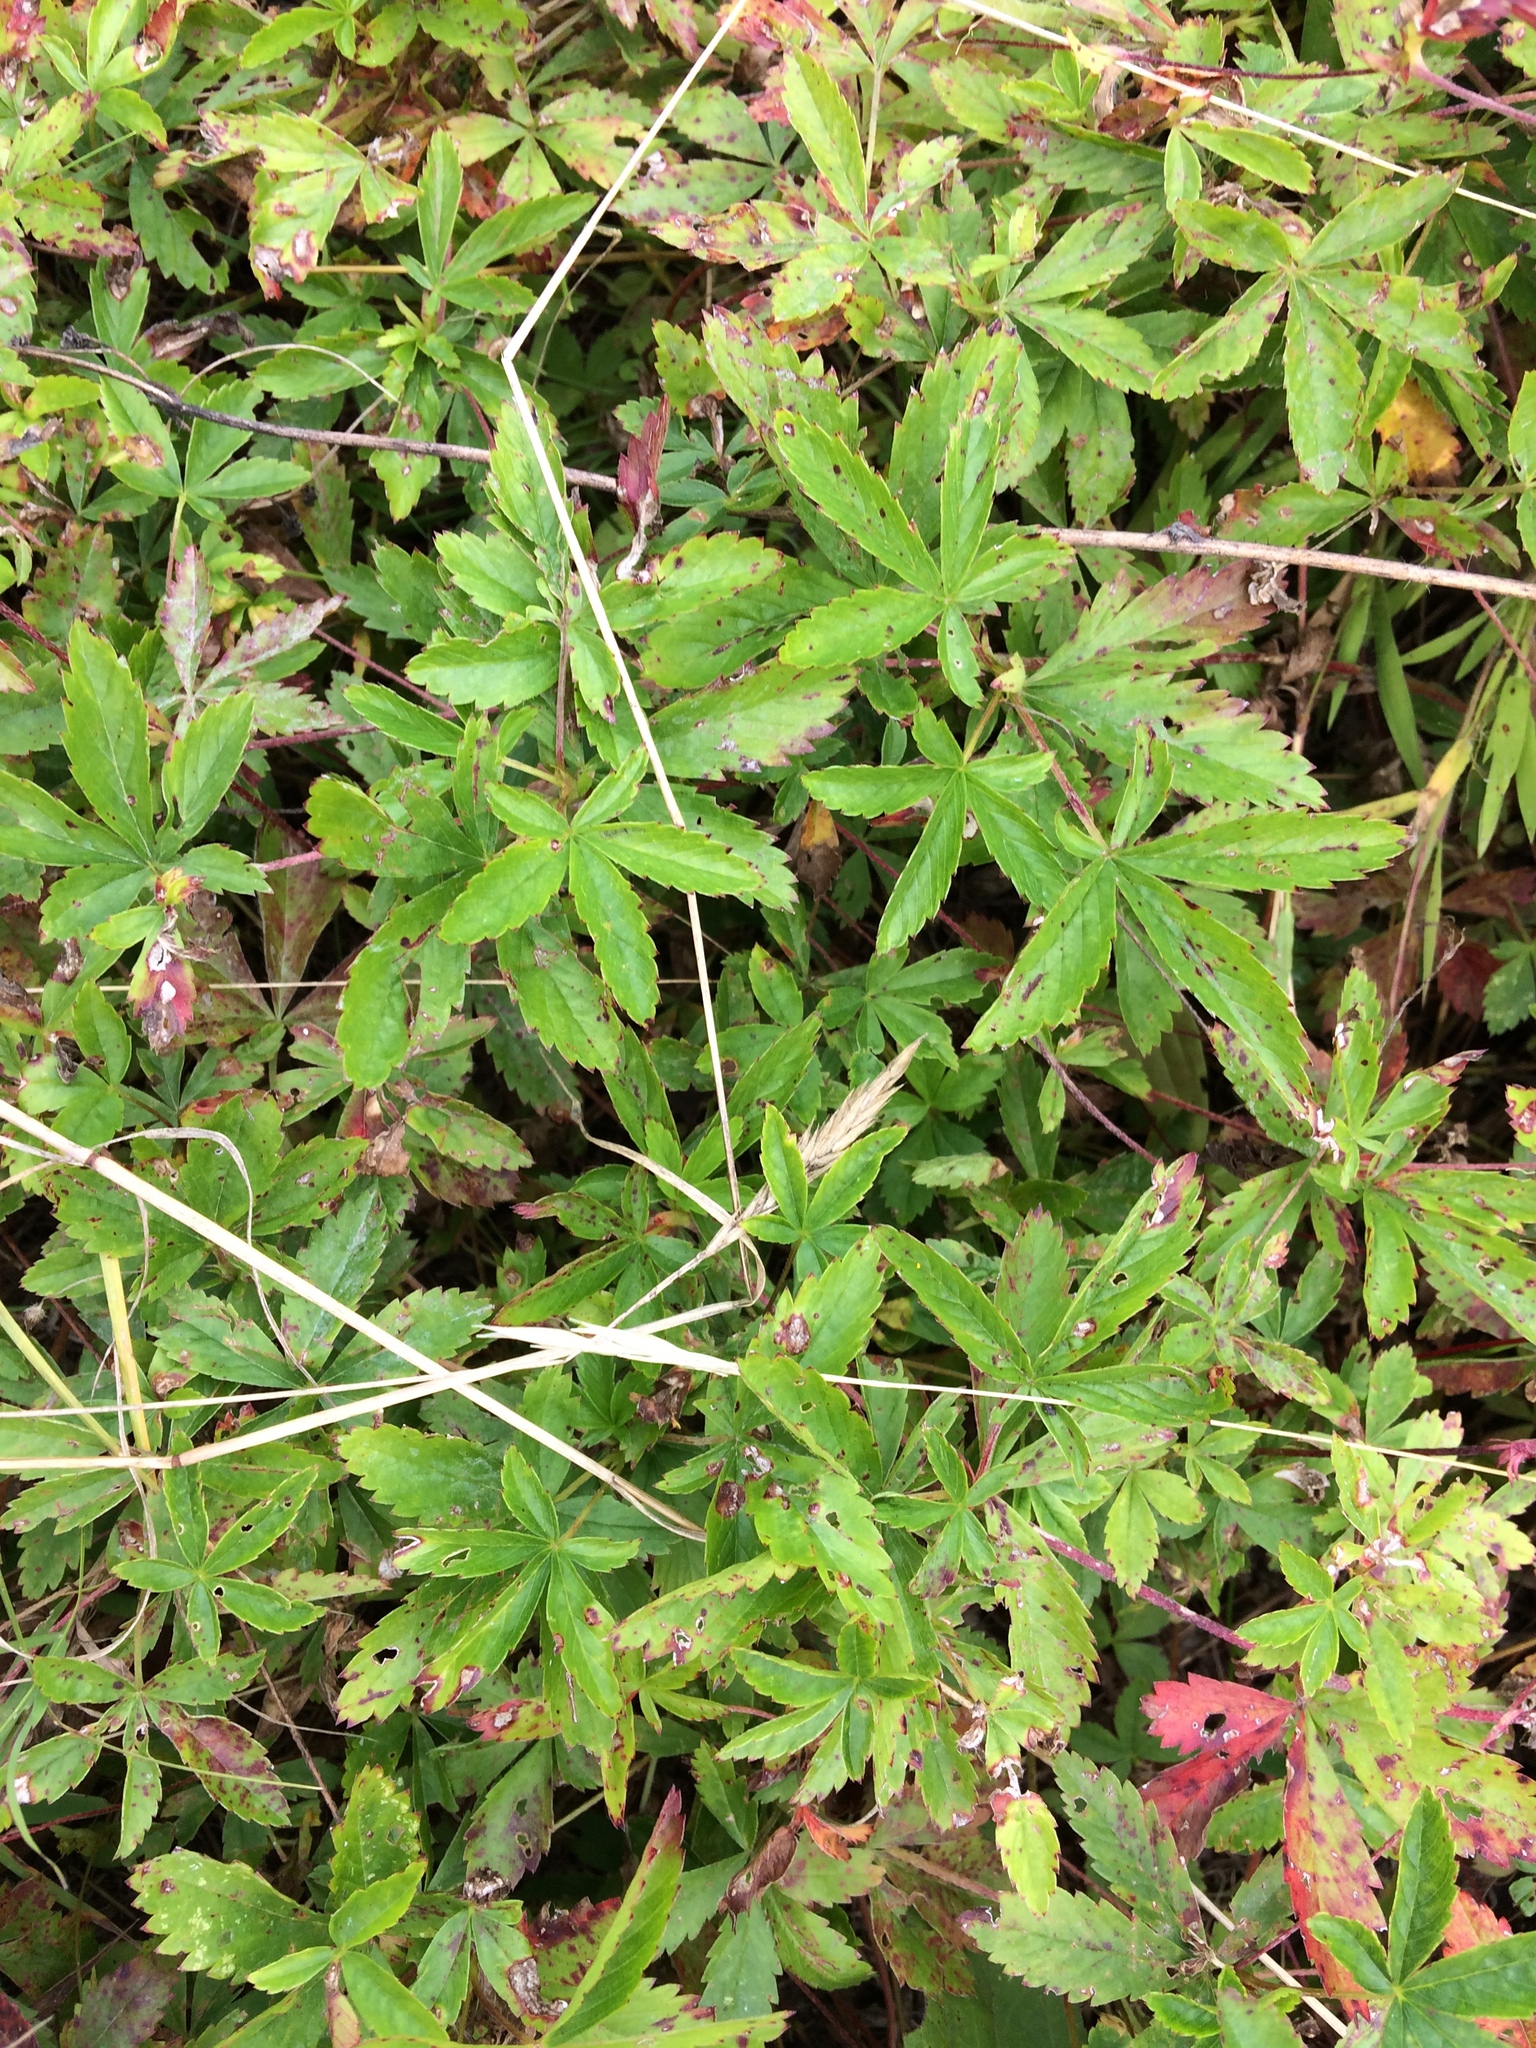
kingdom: Plantae
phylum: Tracheophyta
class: Magnoliopsida
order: Rosales
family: Rosaceae
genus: Potentilla
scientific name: Potentilla simplex
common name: Old field cinquefoil
